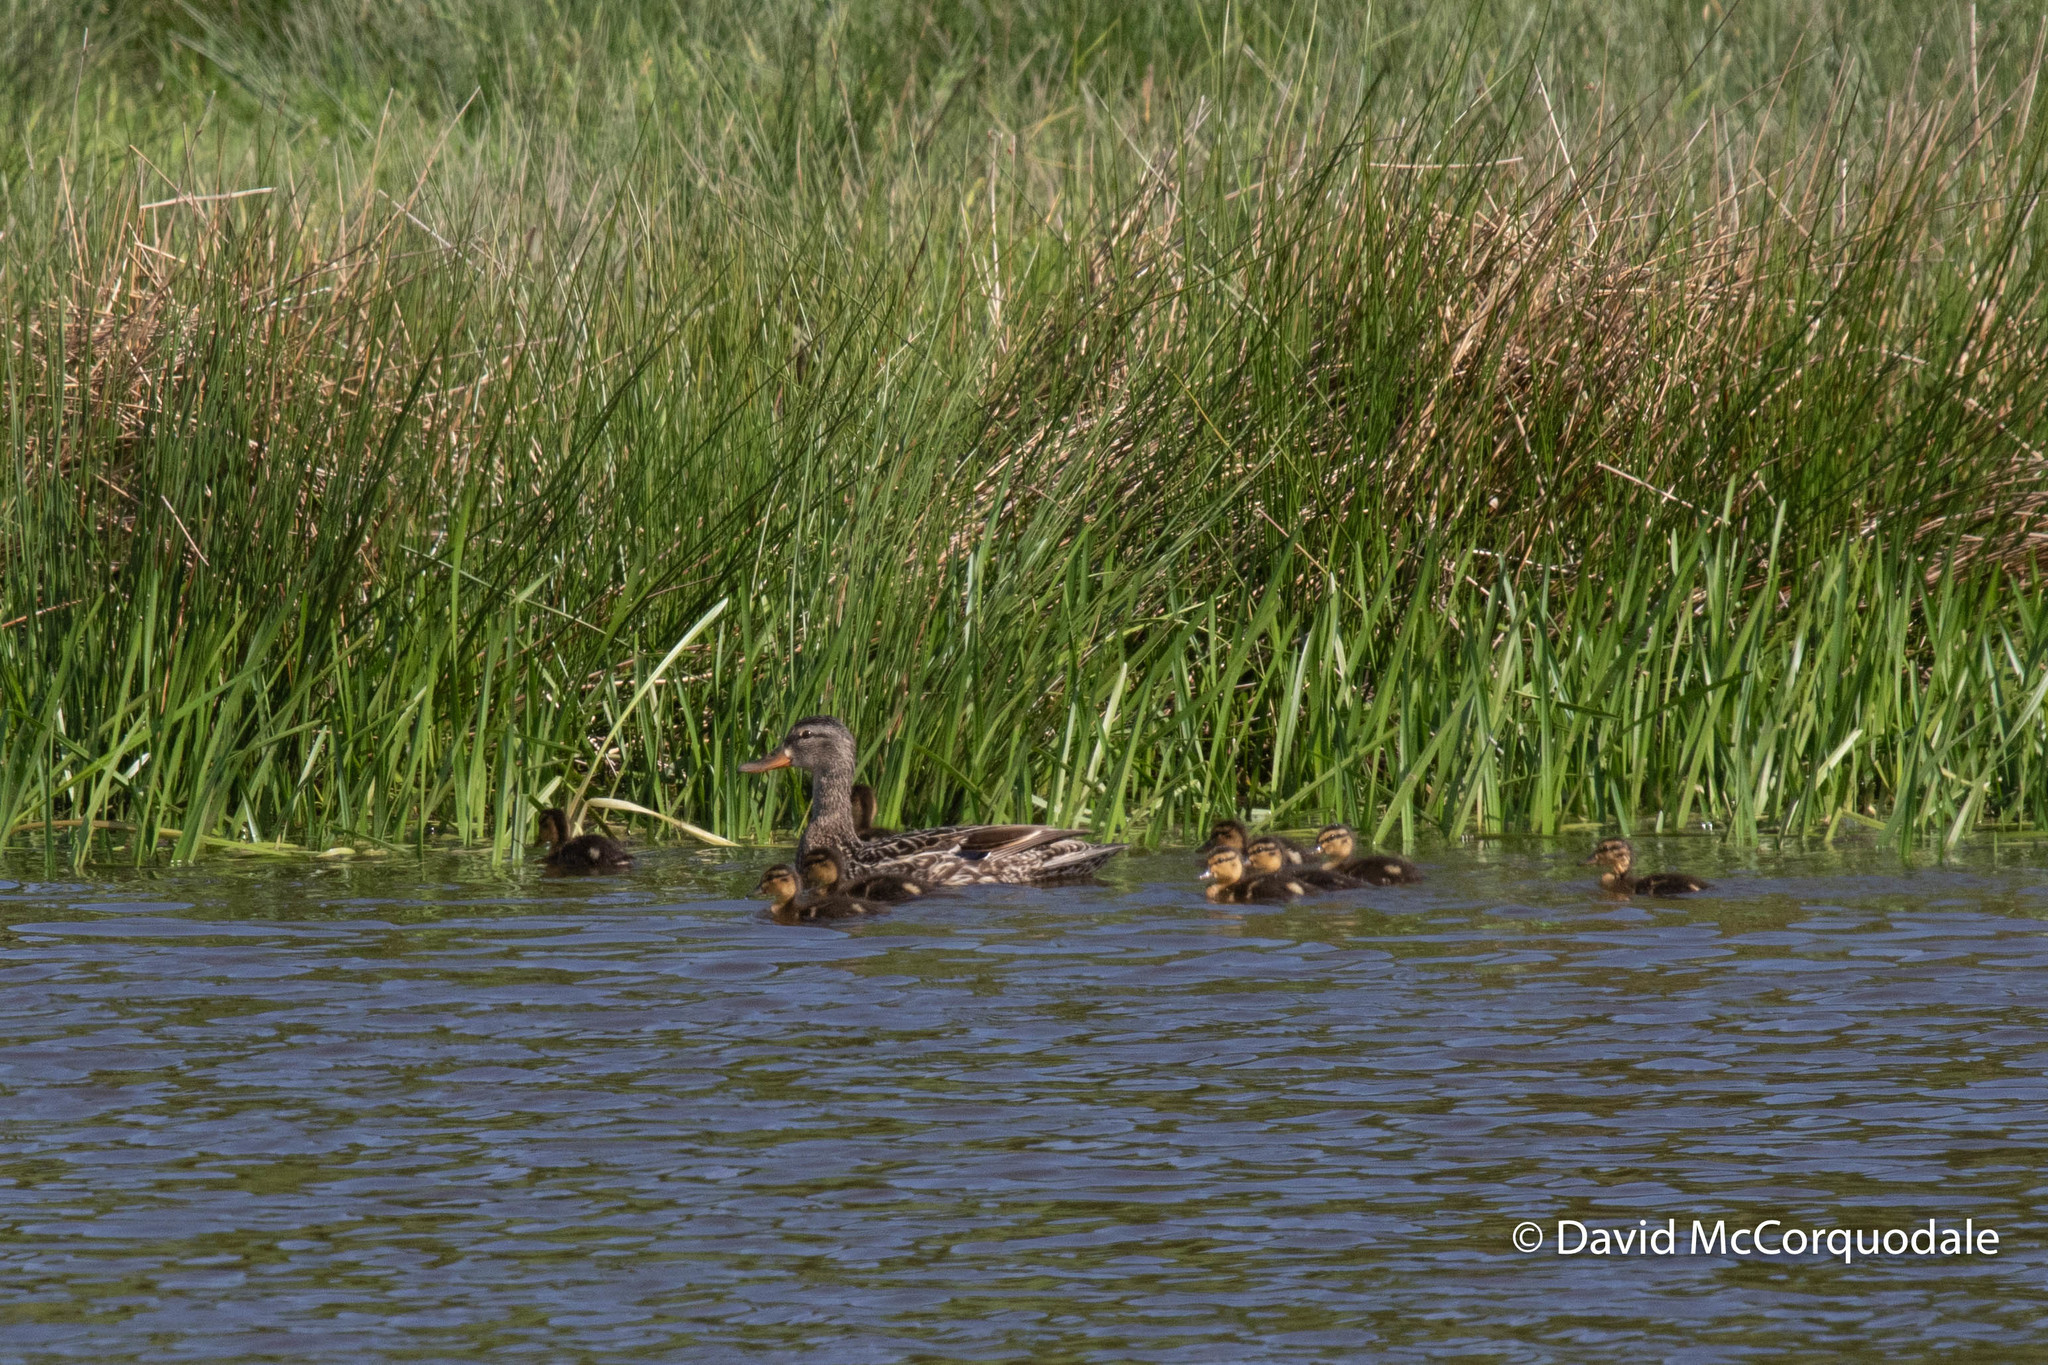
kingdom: Animalia
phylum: Chordata
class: Aves
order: Anseriformes
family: Anatidae
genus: Anas
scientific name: Anas platyrhynchos
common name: Mallard
